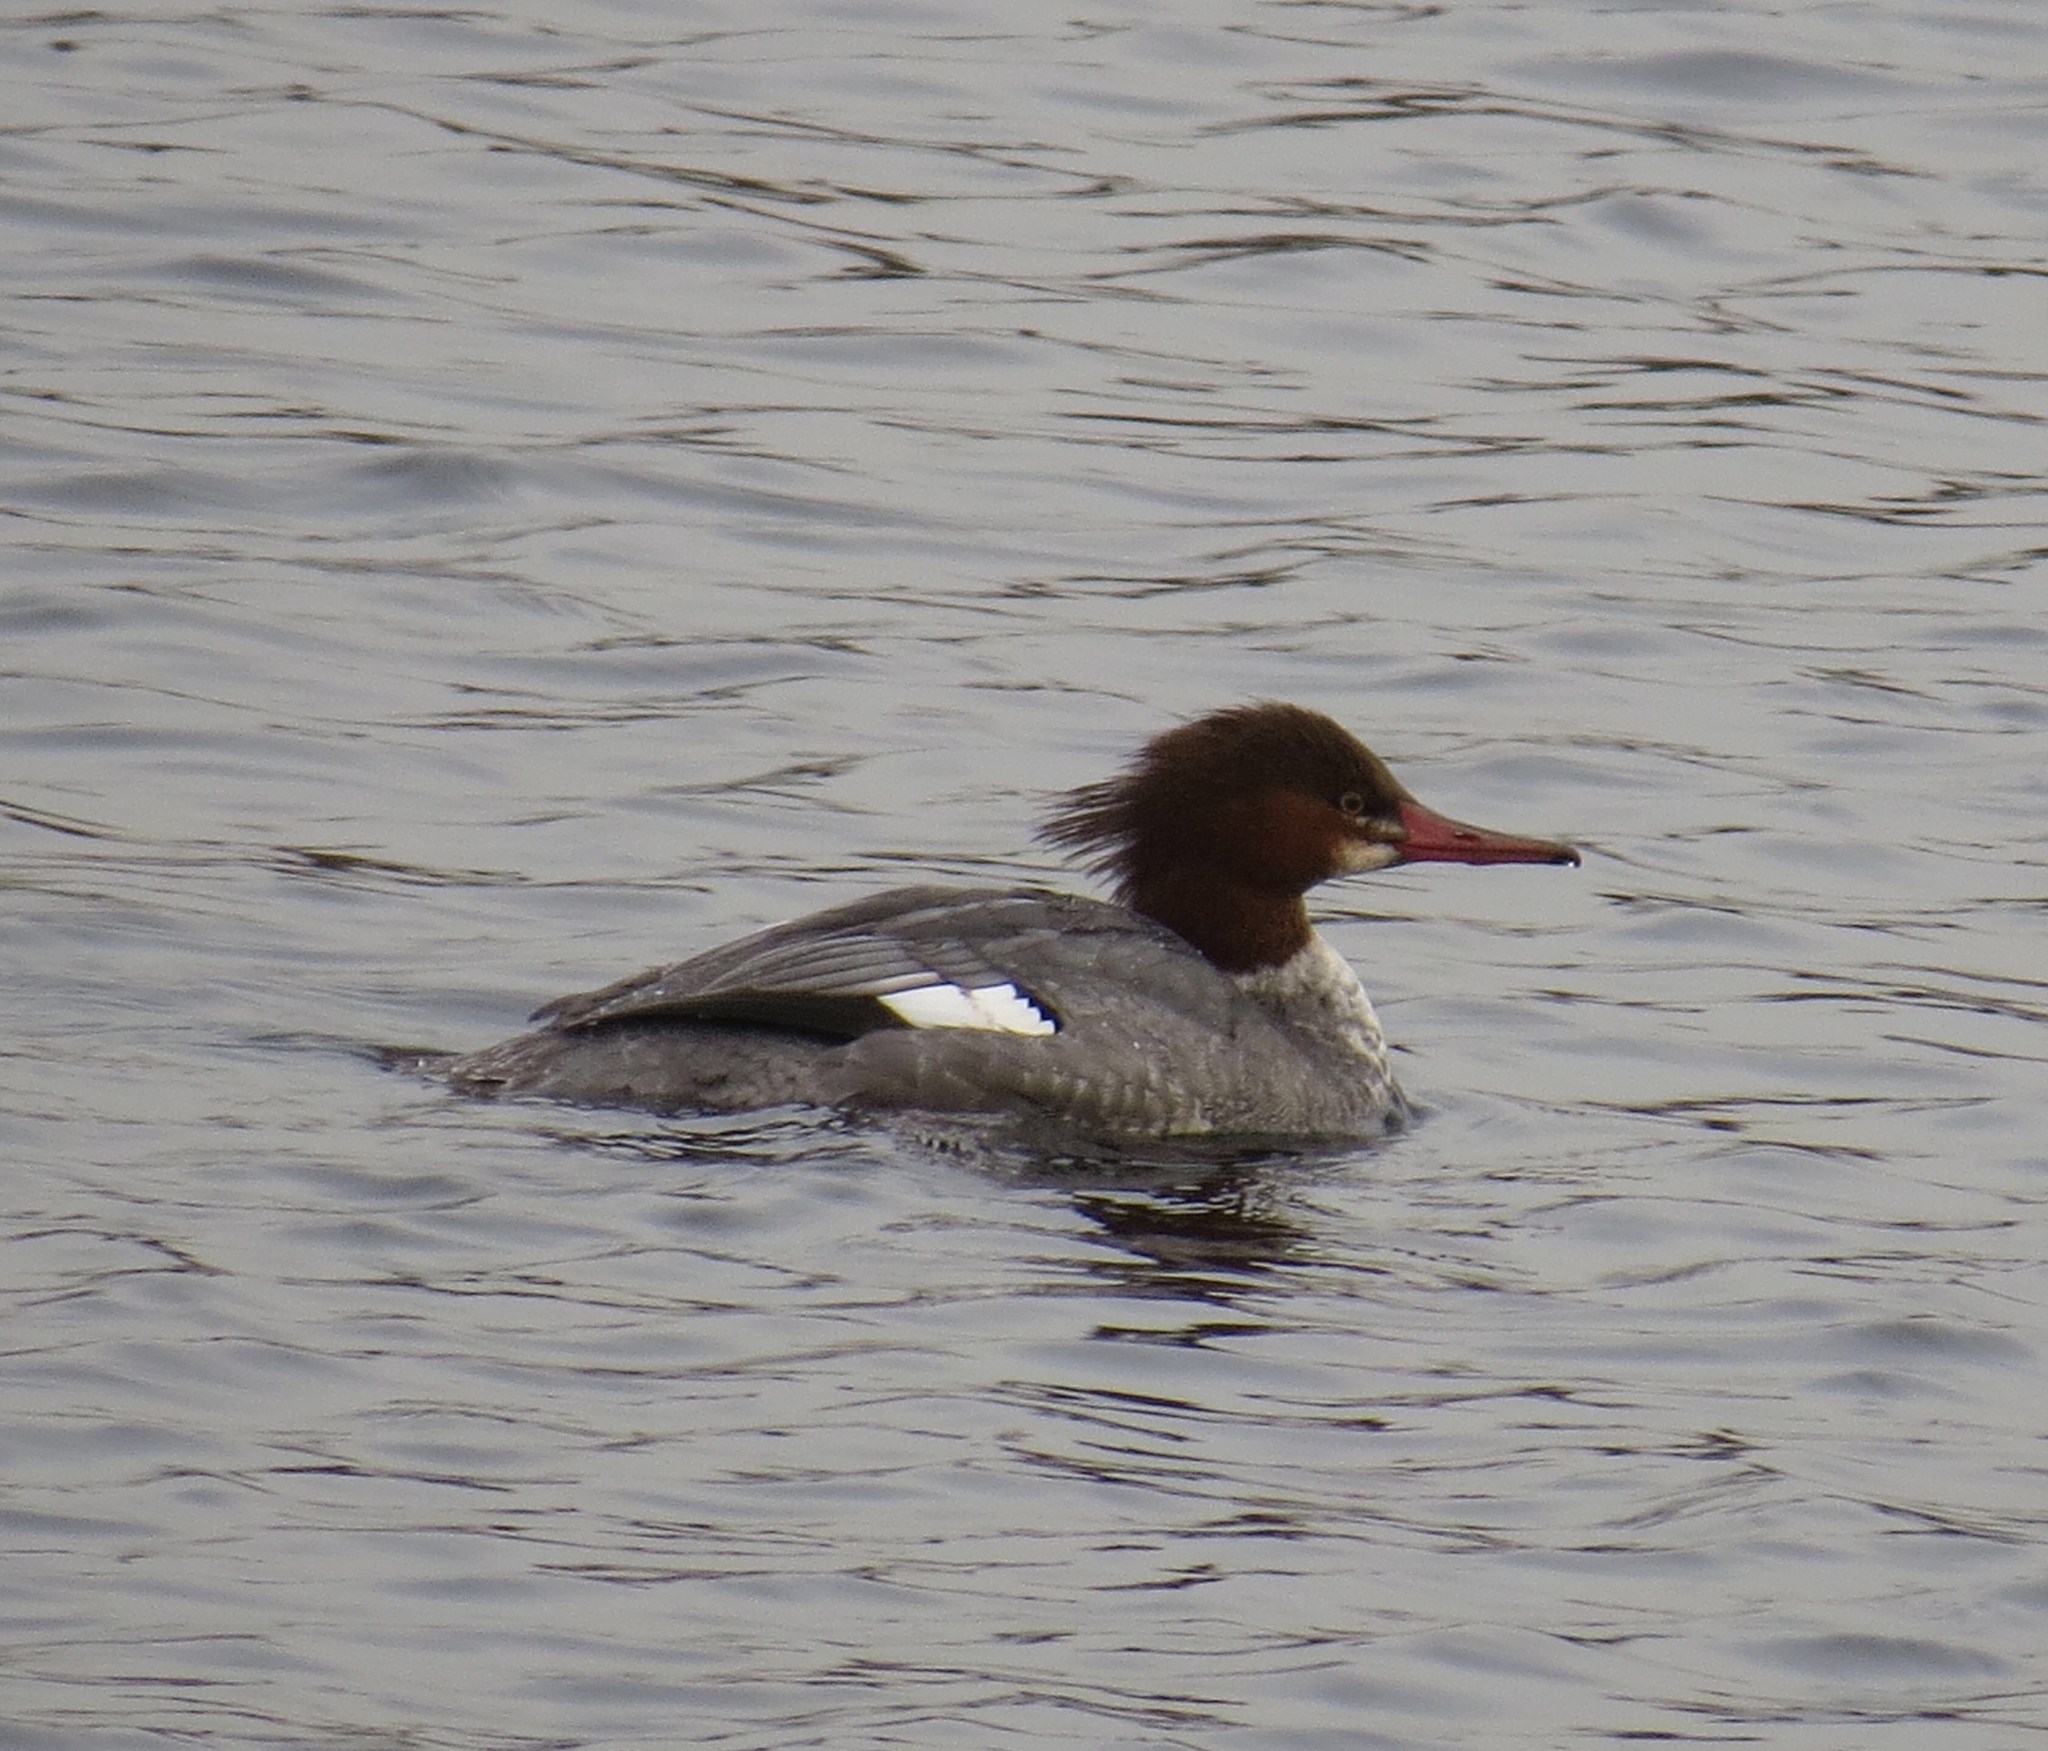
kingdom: Animalia
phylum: Chordata
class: Aves
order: Anseriformes
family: Anatidae
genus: Mergus
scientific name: Mergus merganser
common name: Common merganser
